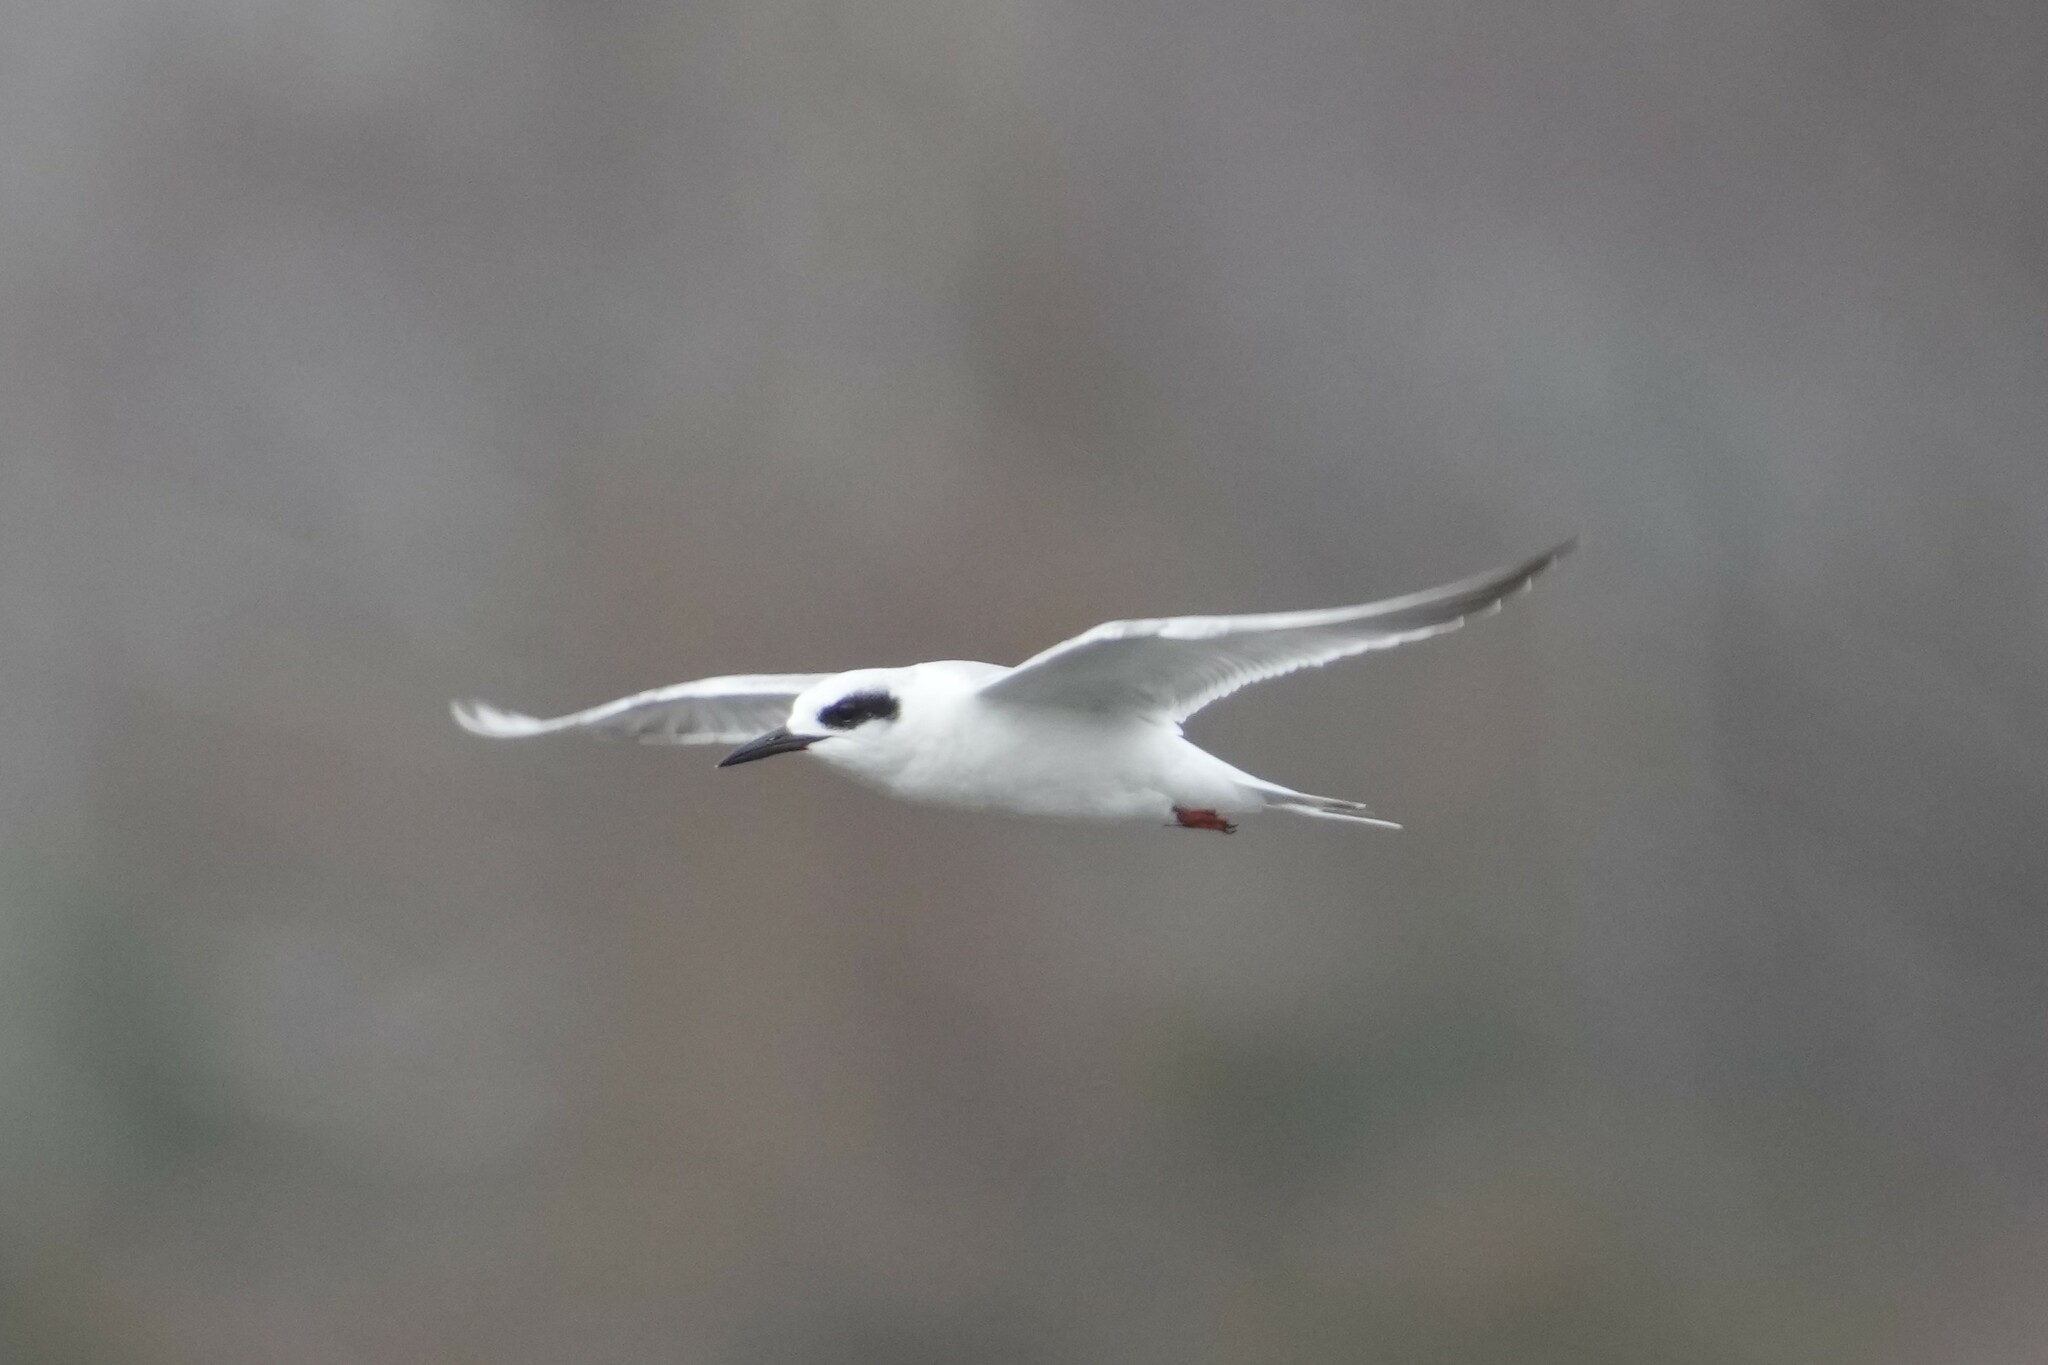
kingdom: Animalia
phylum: Chordata
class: Aves
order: Charadriiformes
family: Laridae
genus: Sterna
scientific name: Sterna forsteri
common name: Forster's tern
